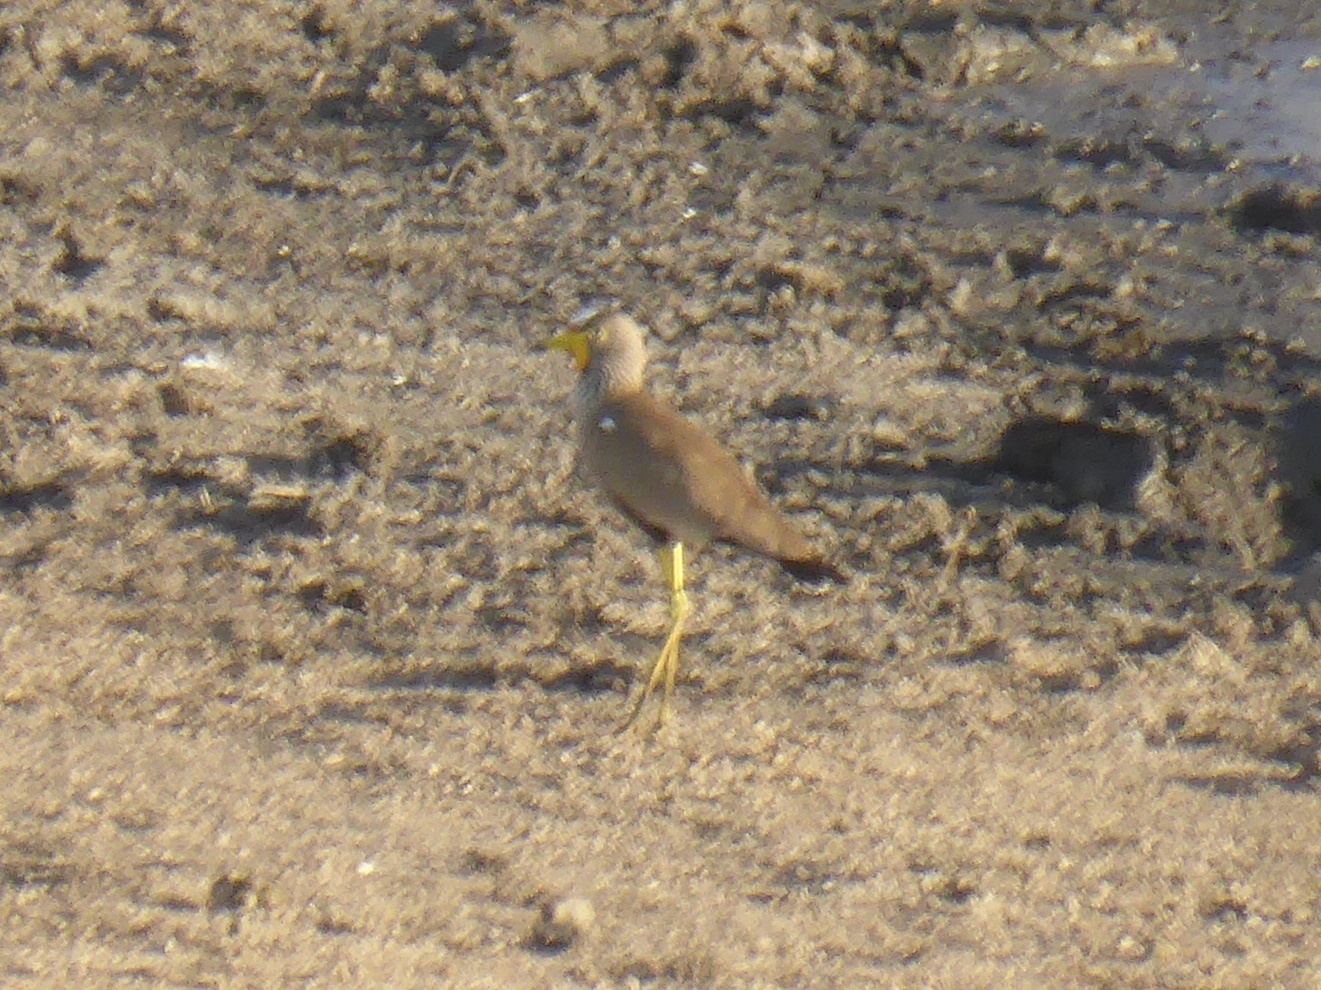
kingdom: Animalia
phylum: Chordata
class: Aves
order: Charadriiformes
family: Charadriidae
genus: Vanellus
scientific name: Vanellus senegallus
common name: African wattled lapwing
